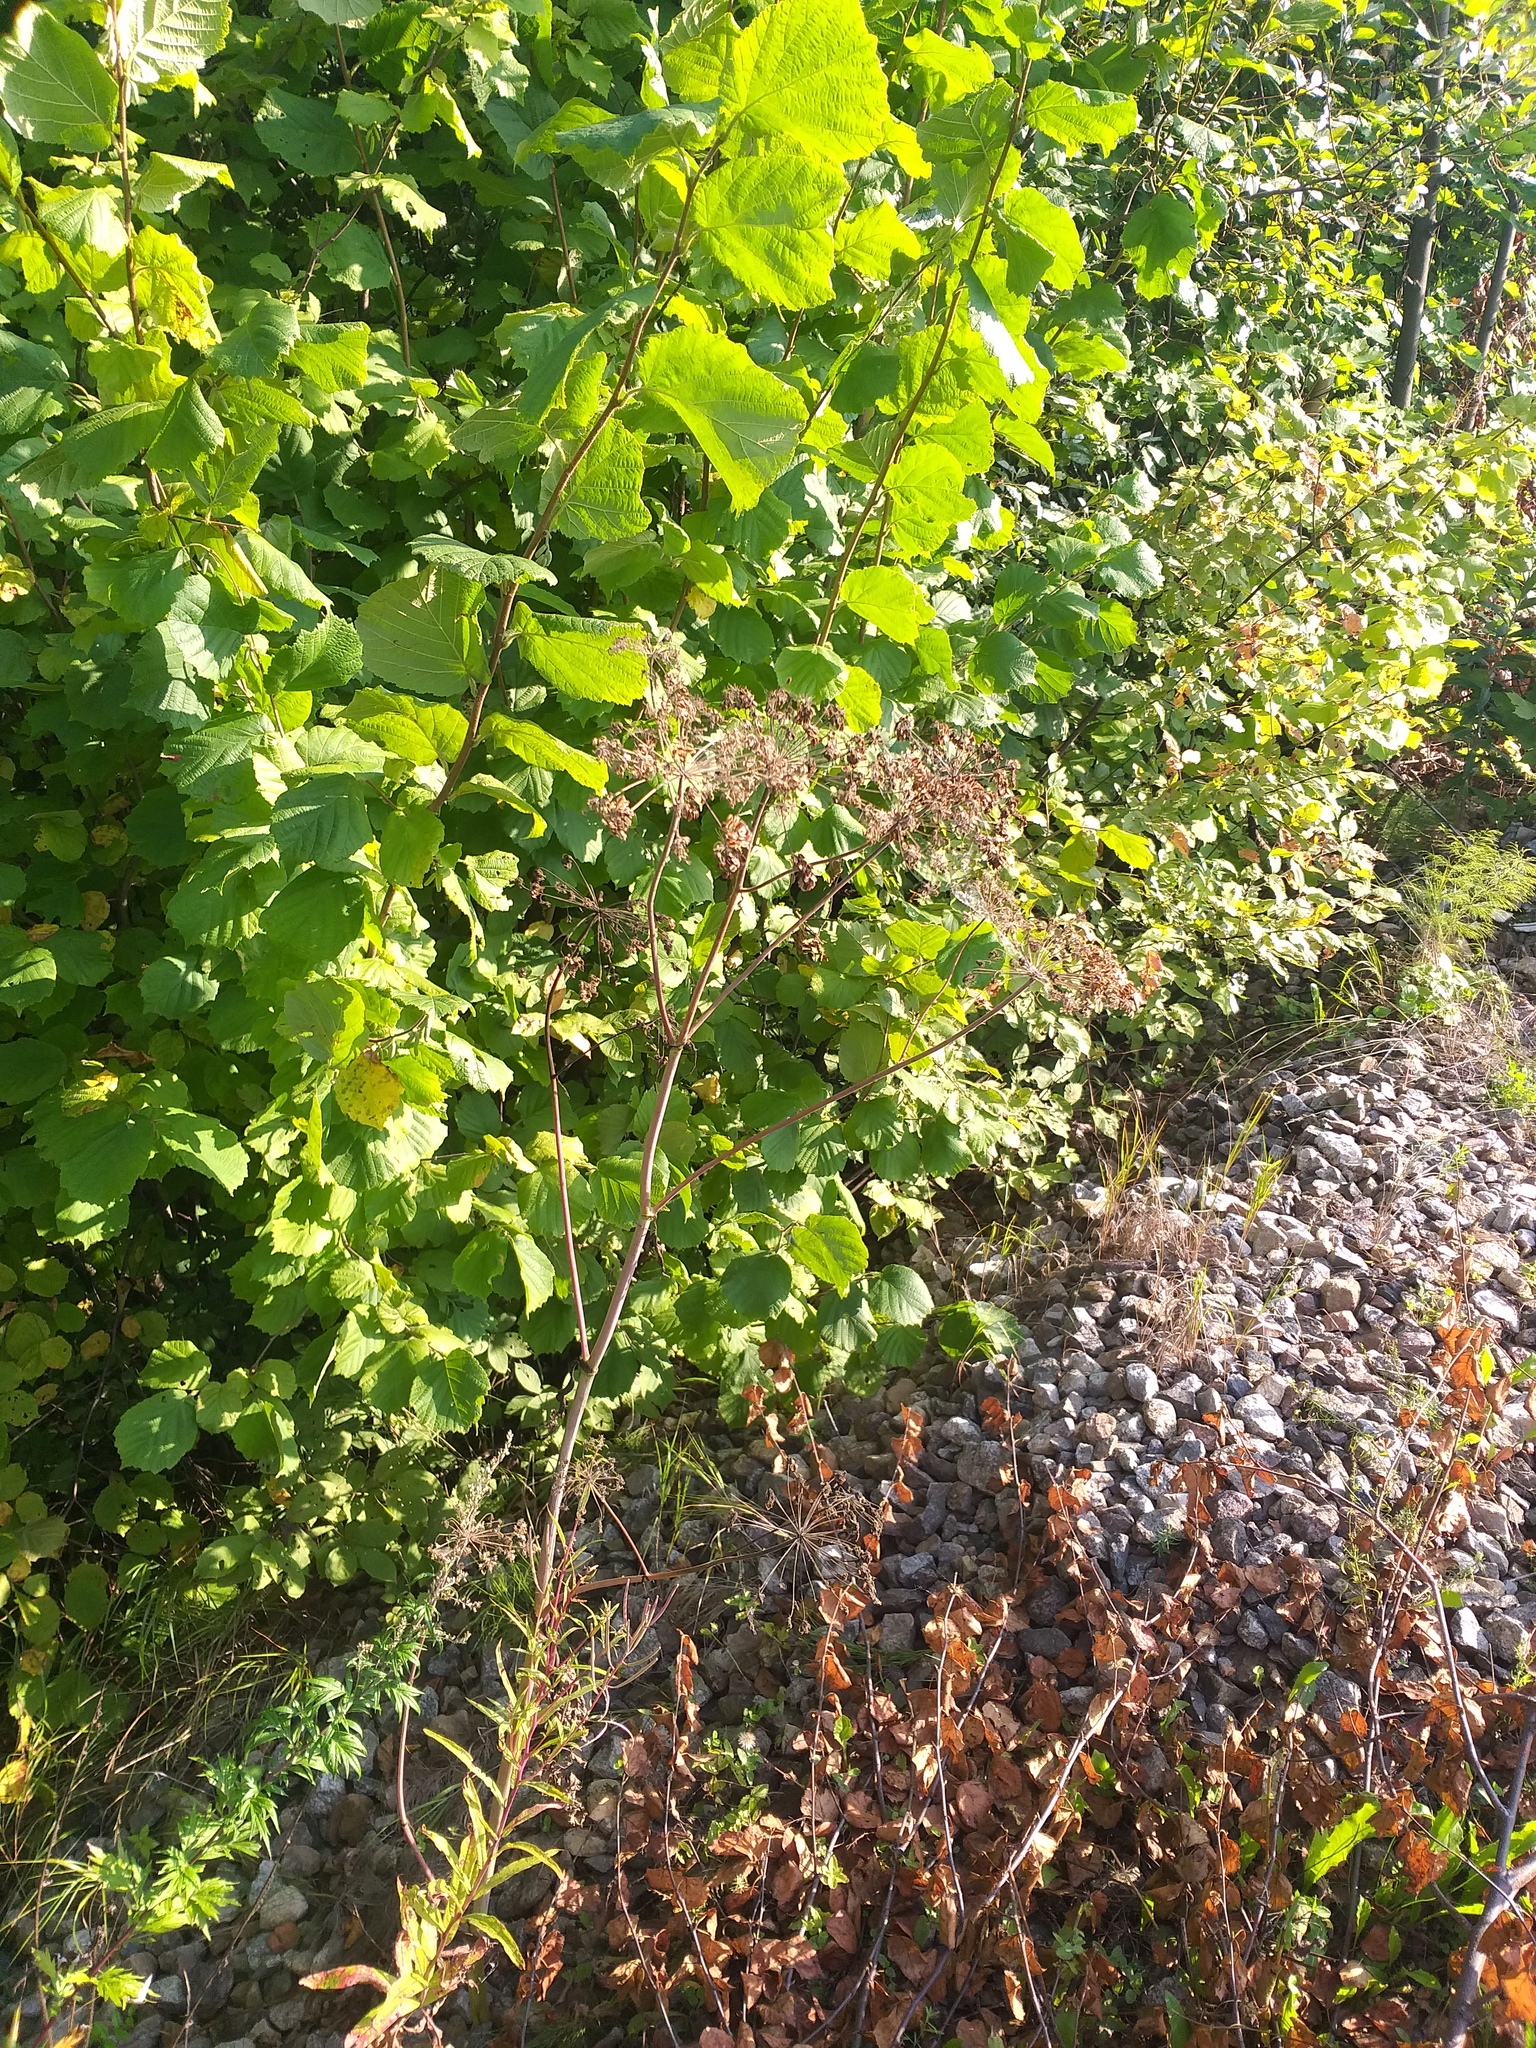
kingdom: Plantae
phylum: Tracheophyta
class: Magnoliopsida
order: Apiales
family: Apiaceae
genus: Angelica
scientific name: Angelica sylvestris
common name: Wild angelica
